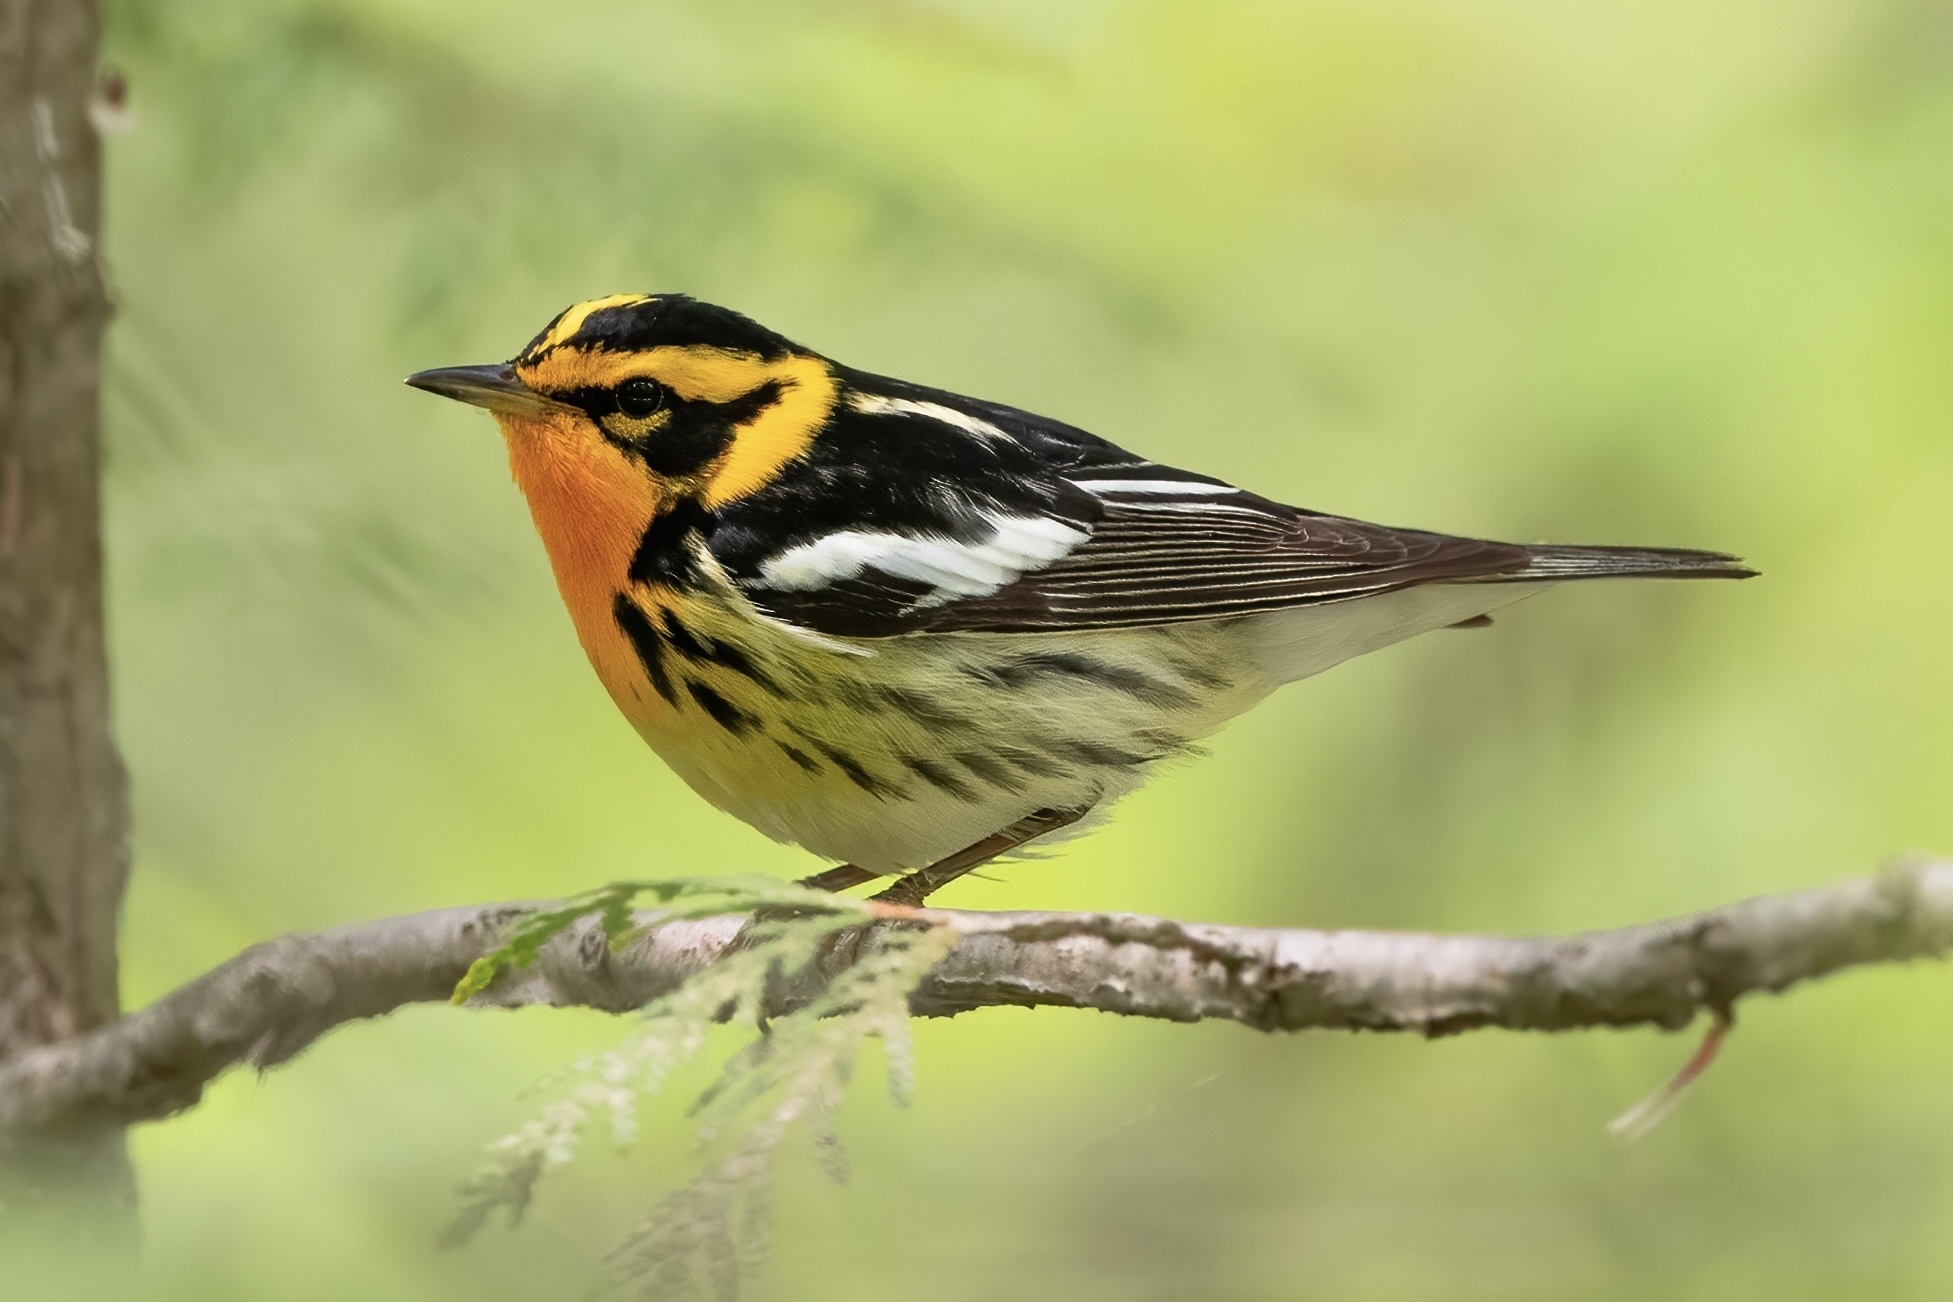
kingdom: Animalia
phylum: Chordata
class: Aves
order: Passeriformes
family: Parulidae
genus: Setophaga
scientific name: Setophaga fusca
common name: Blackburnian warbler
